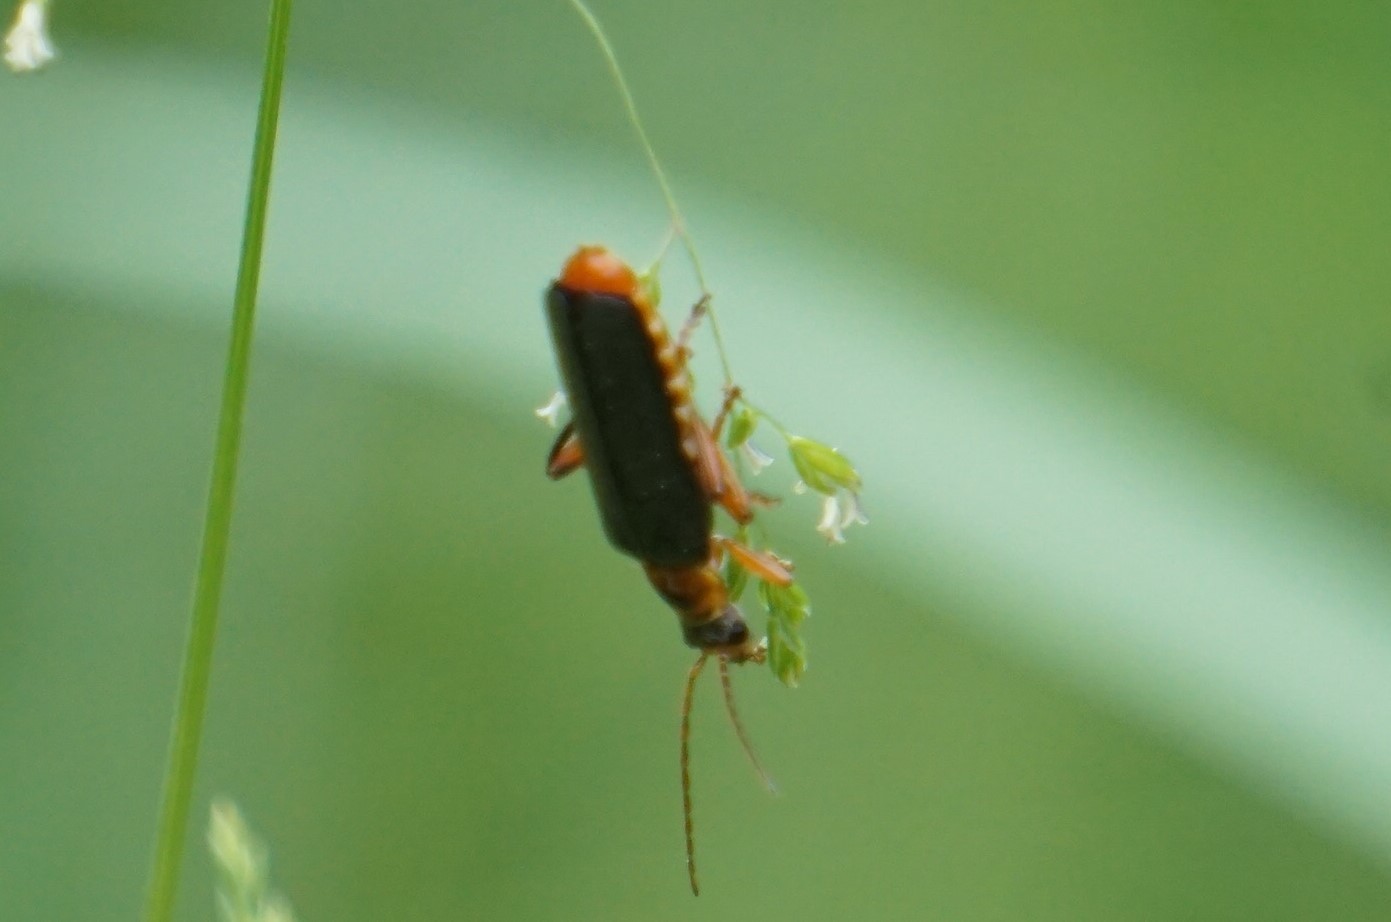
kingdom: Animalia
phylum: Arthropoda
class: Insecta
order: Coleoptera
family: Cantharidae
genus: Cantharis
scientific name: Cantharis pellucida
